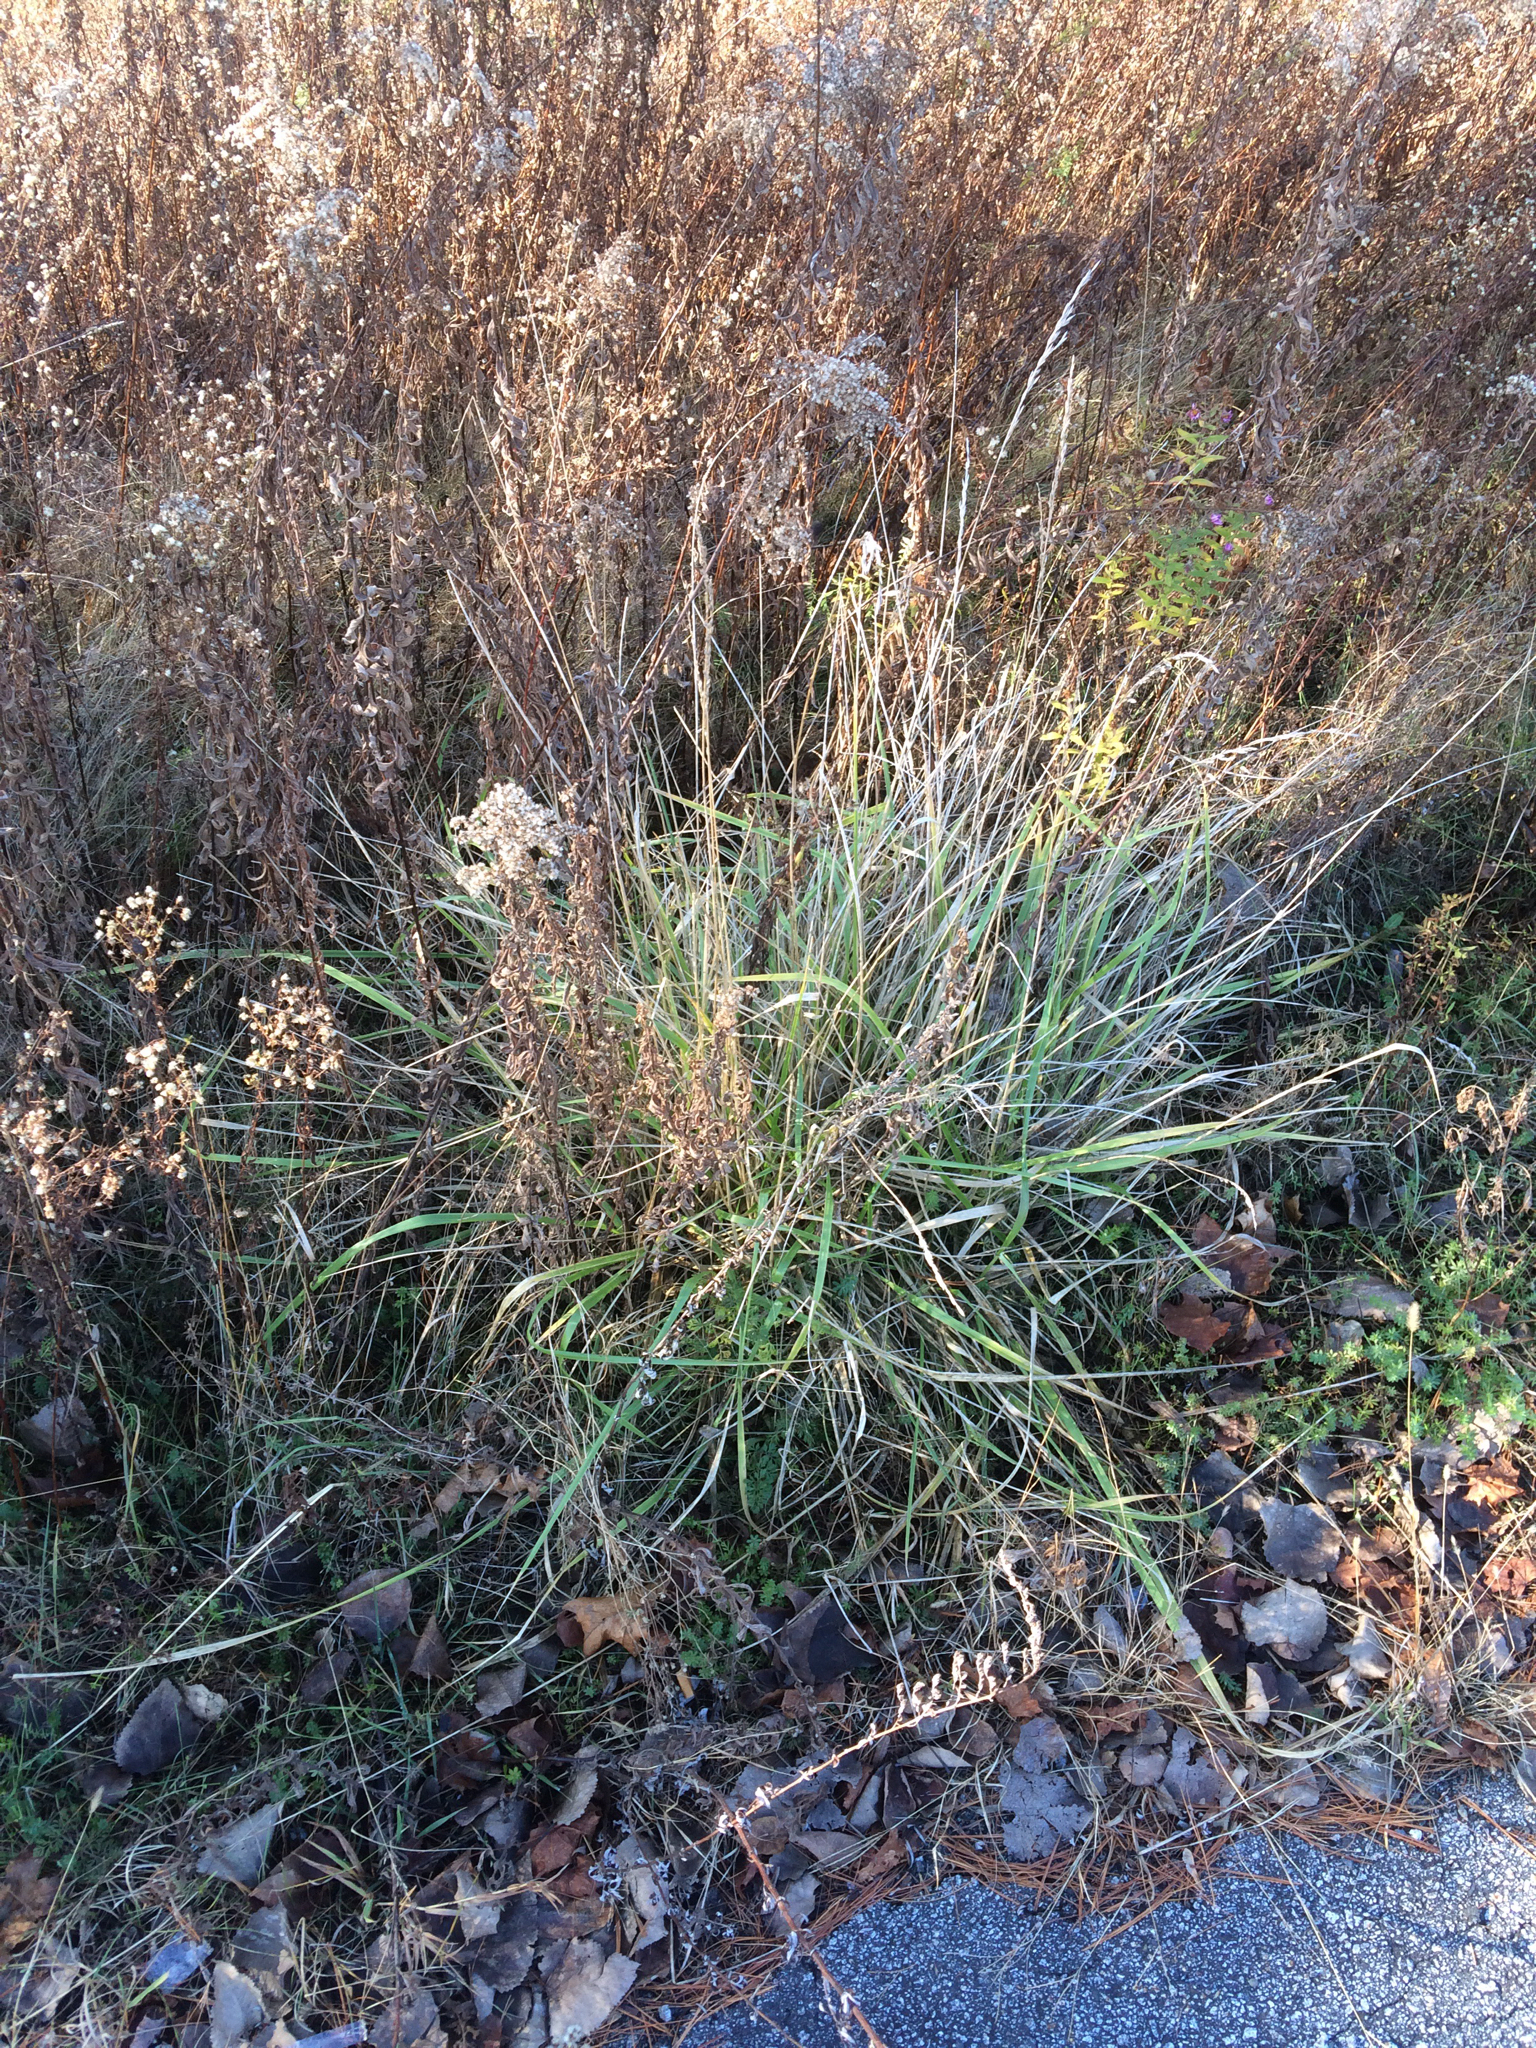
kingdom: Plantae
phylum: Tracheophyta
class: Liliopsida
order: Poales
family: Poaceae
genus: Dactylis
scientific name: Dactylis glomerata
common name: Orchardgrass
